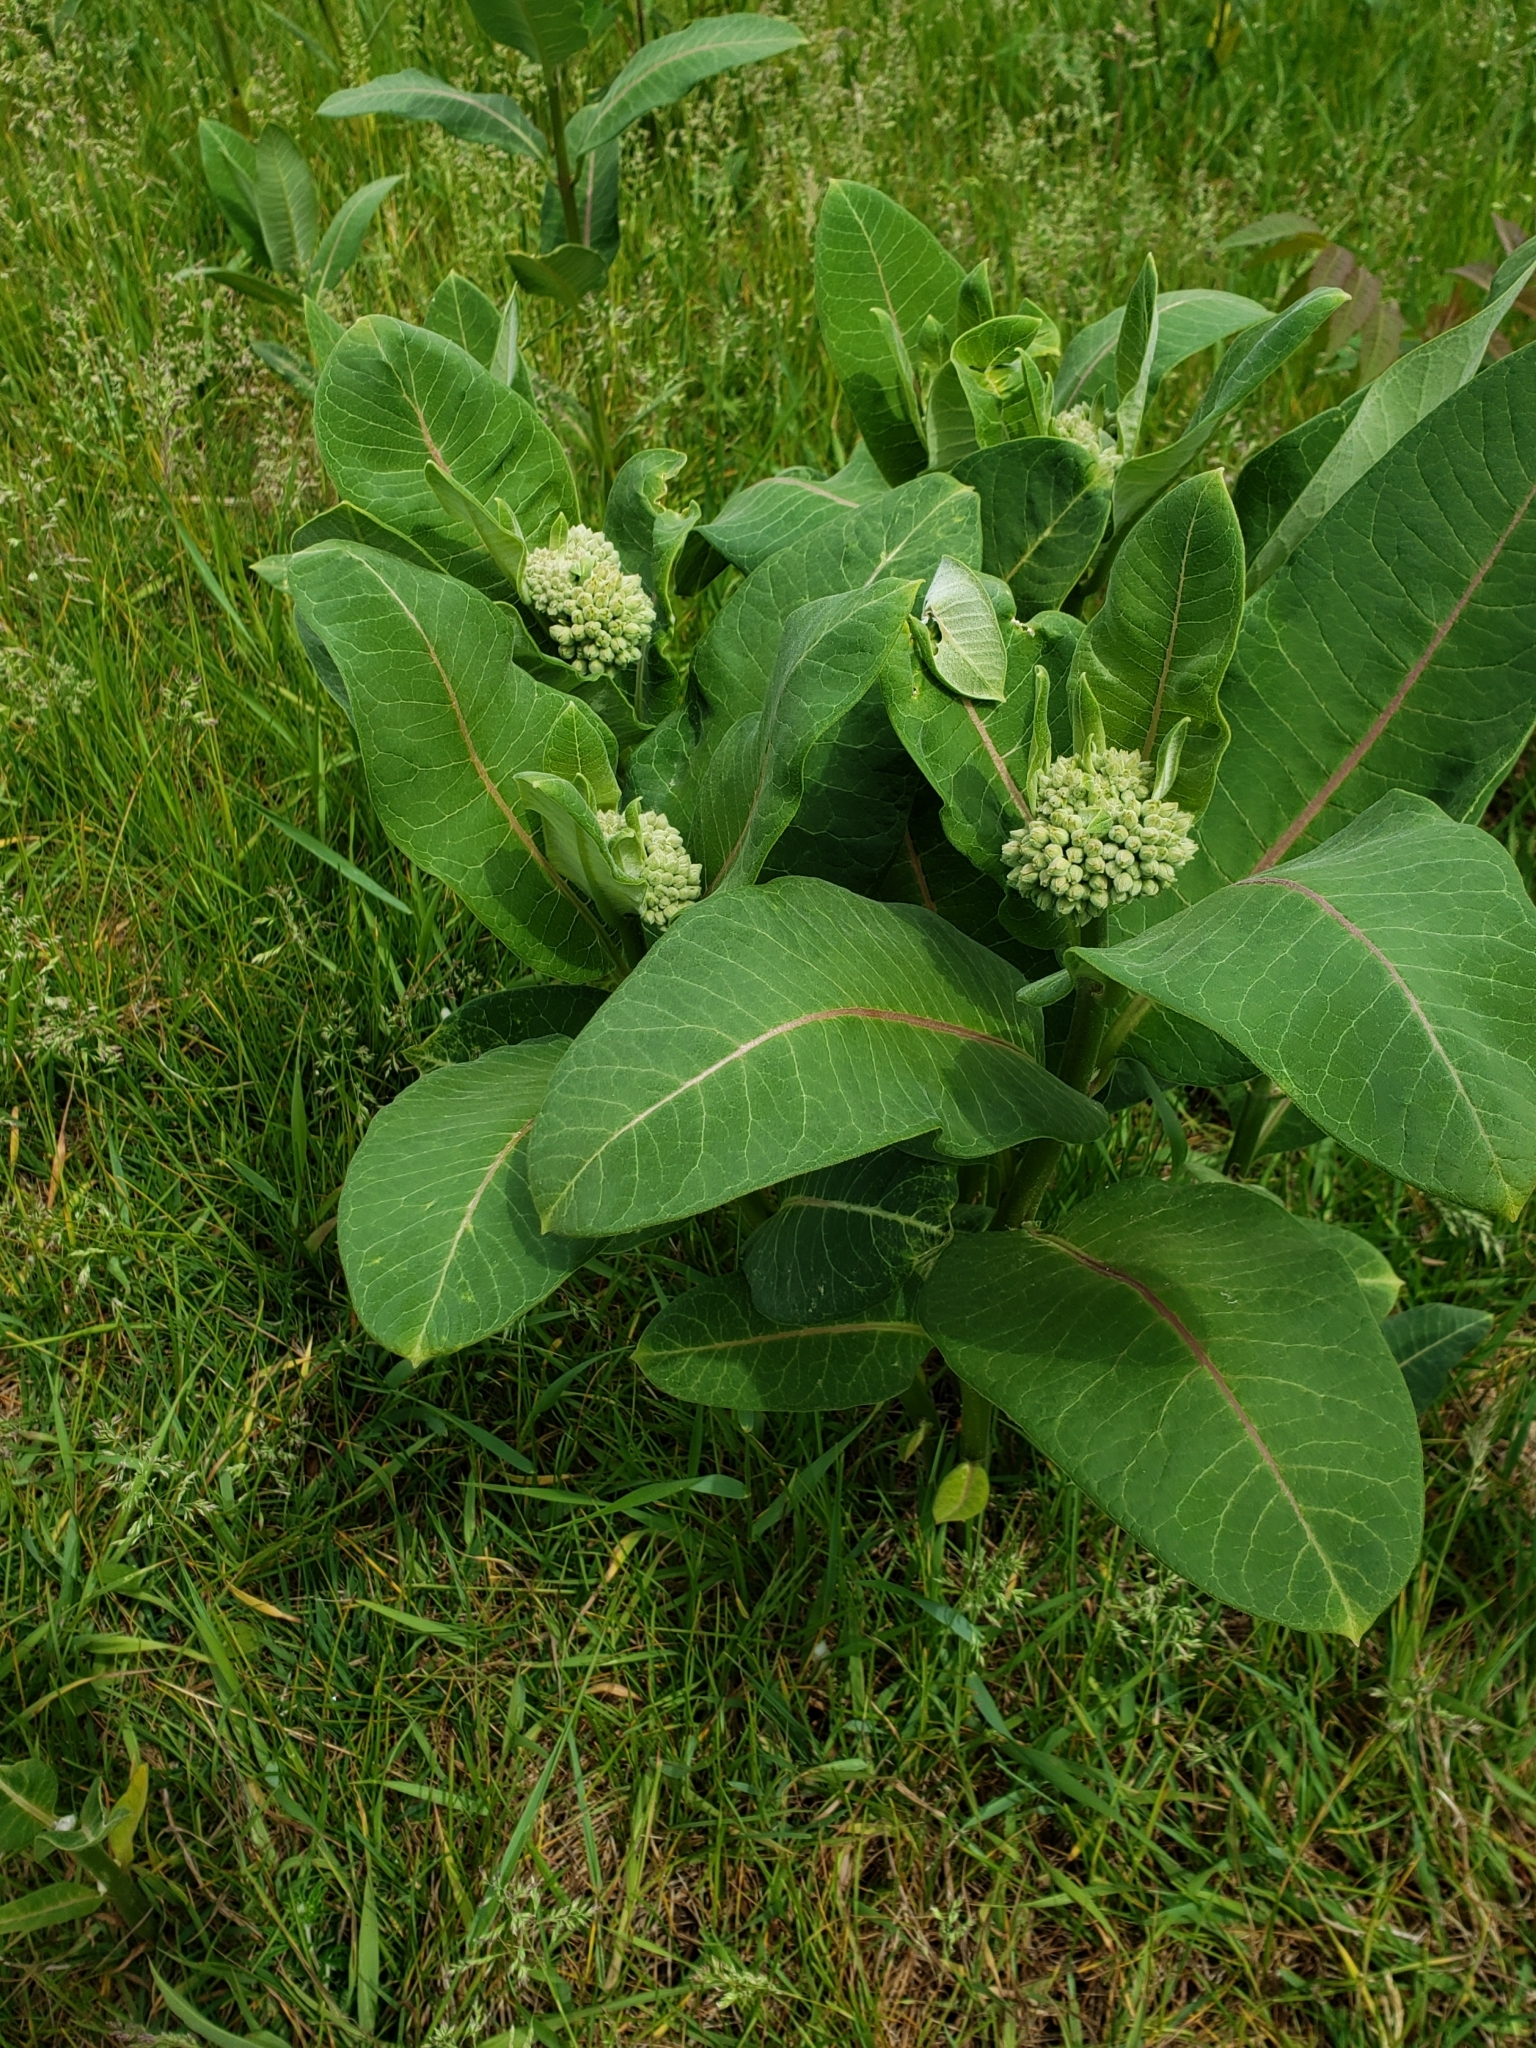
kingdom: Plantae
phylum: Tracheophyta
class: Magnoliopsida
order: Gentianales
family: Apocynaceae
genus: Asclepias
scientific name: Asclepias syriaca
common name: Common milkweed
